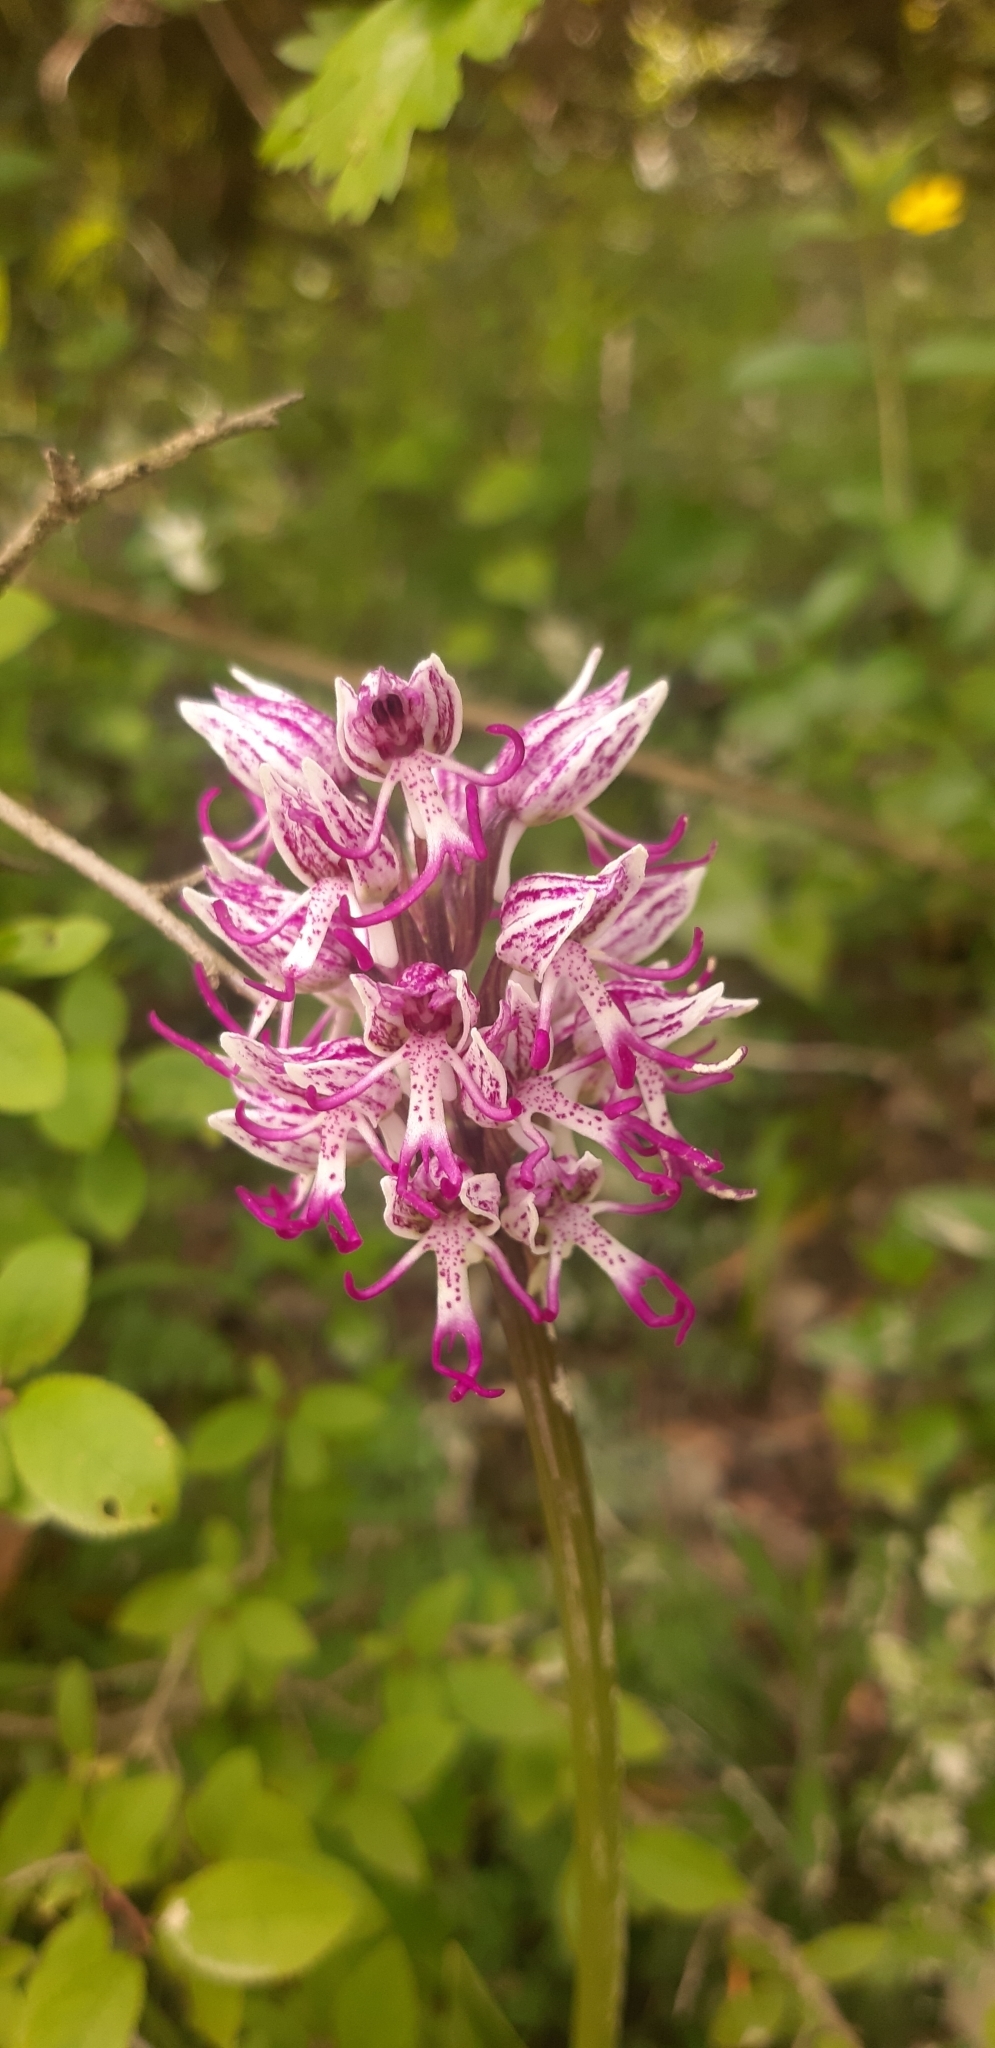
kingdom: Plantae
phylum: Tracheophyta
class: Liliopsida
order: Asparagales
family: Orchidaceae
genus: Orchis
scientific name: Orchis simia
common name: Monkey orchid
